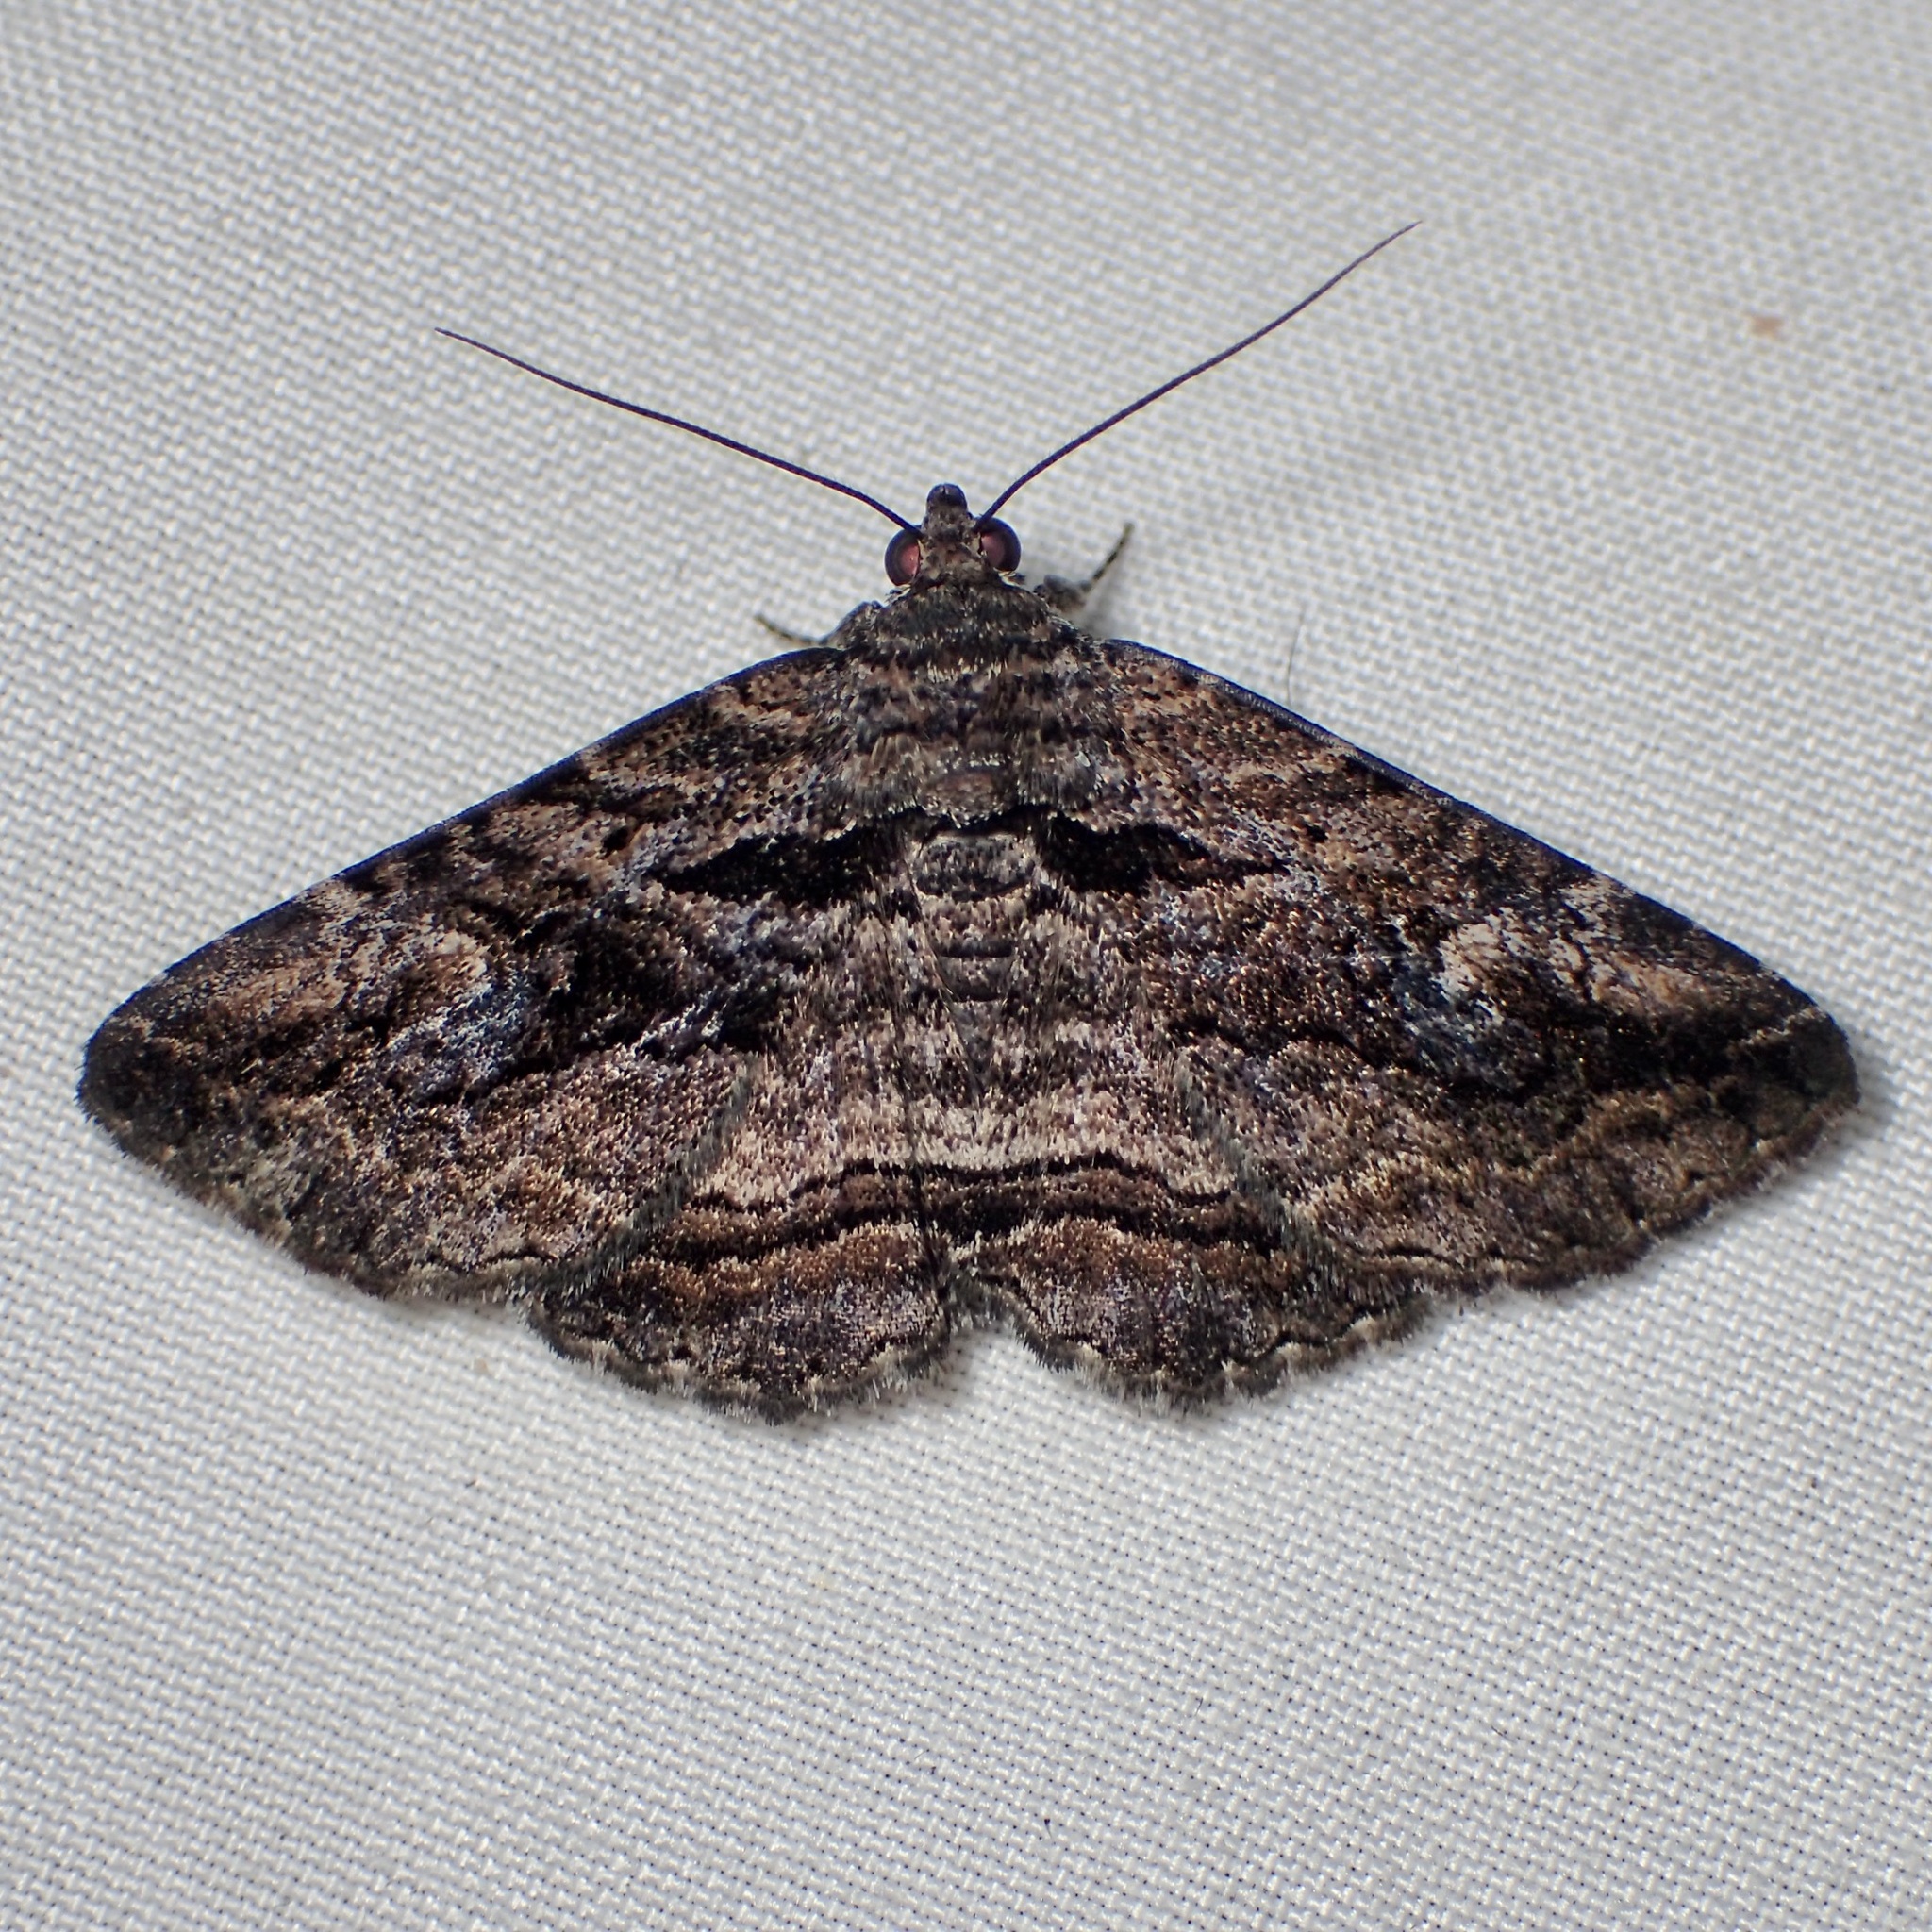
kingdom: Animalia
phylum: Arthropoda
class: Insecta
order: Lepidoptera
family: Erebidae
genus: Zaleops
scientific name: Zaleops umbrina
